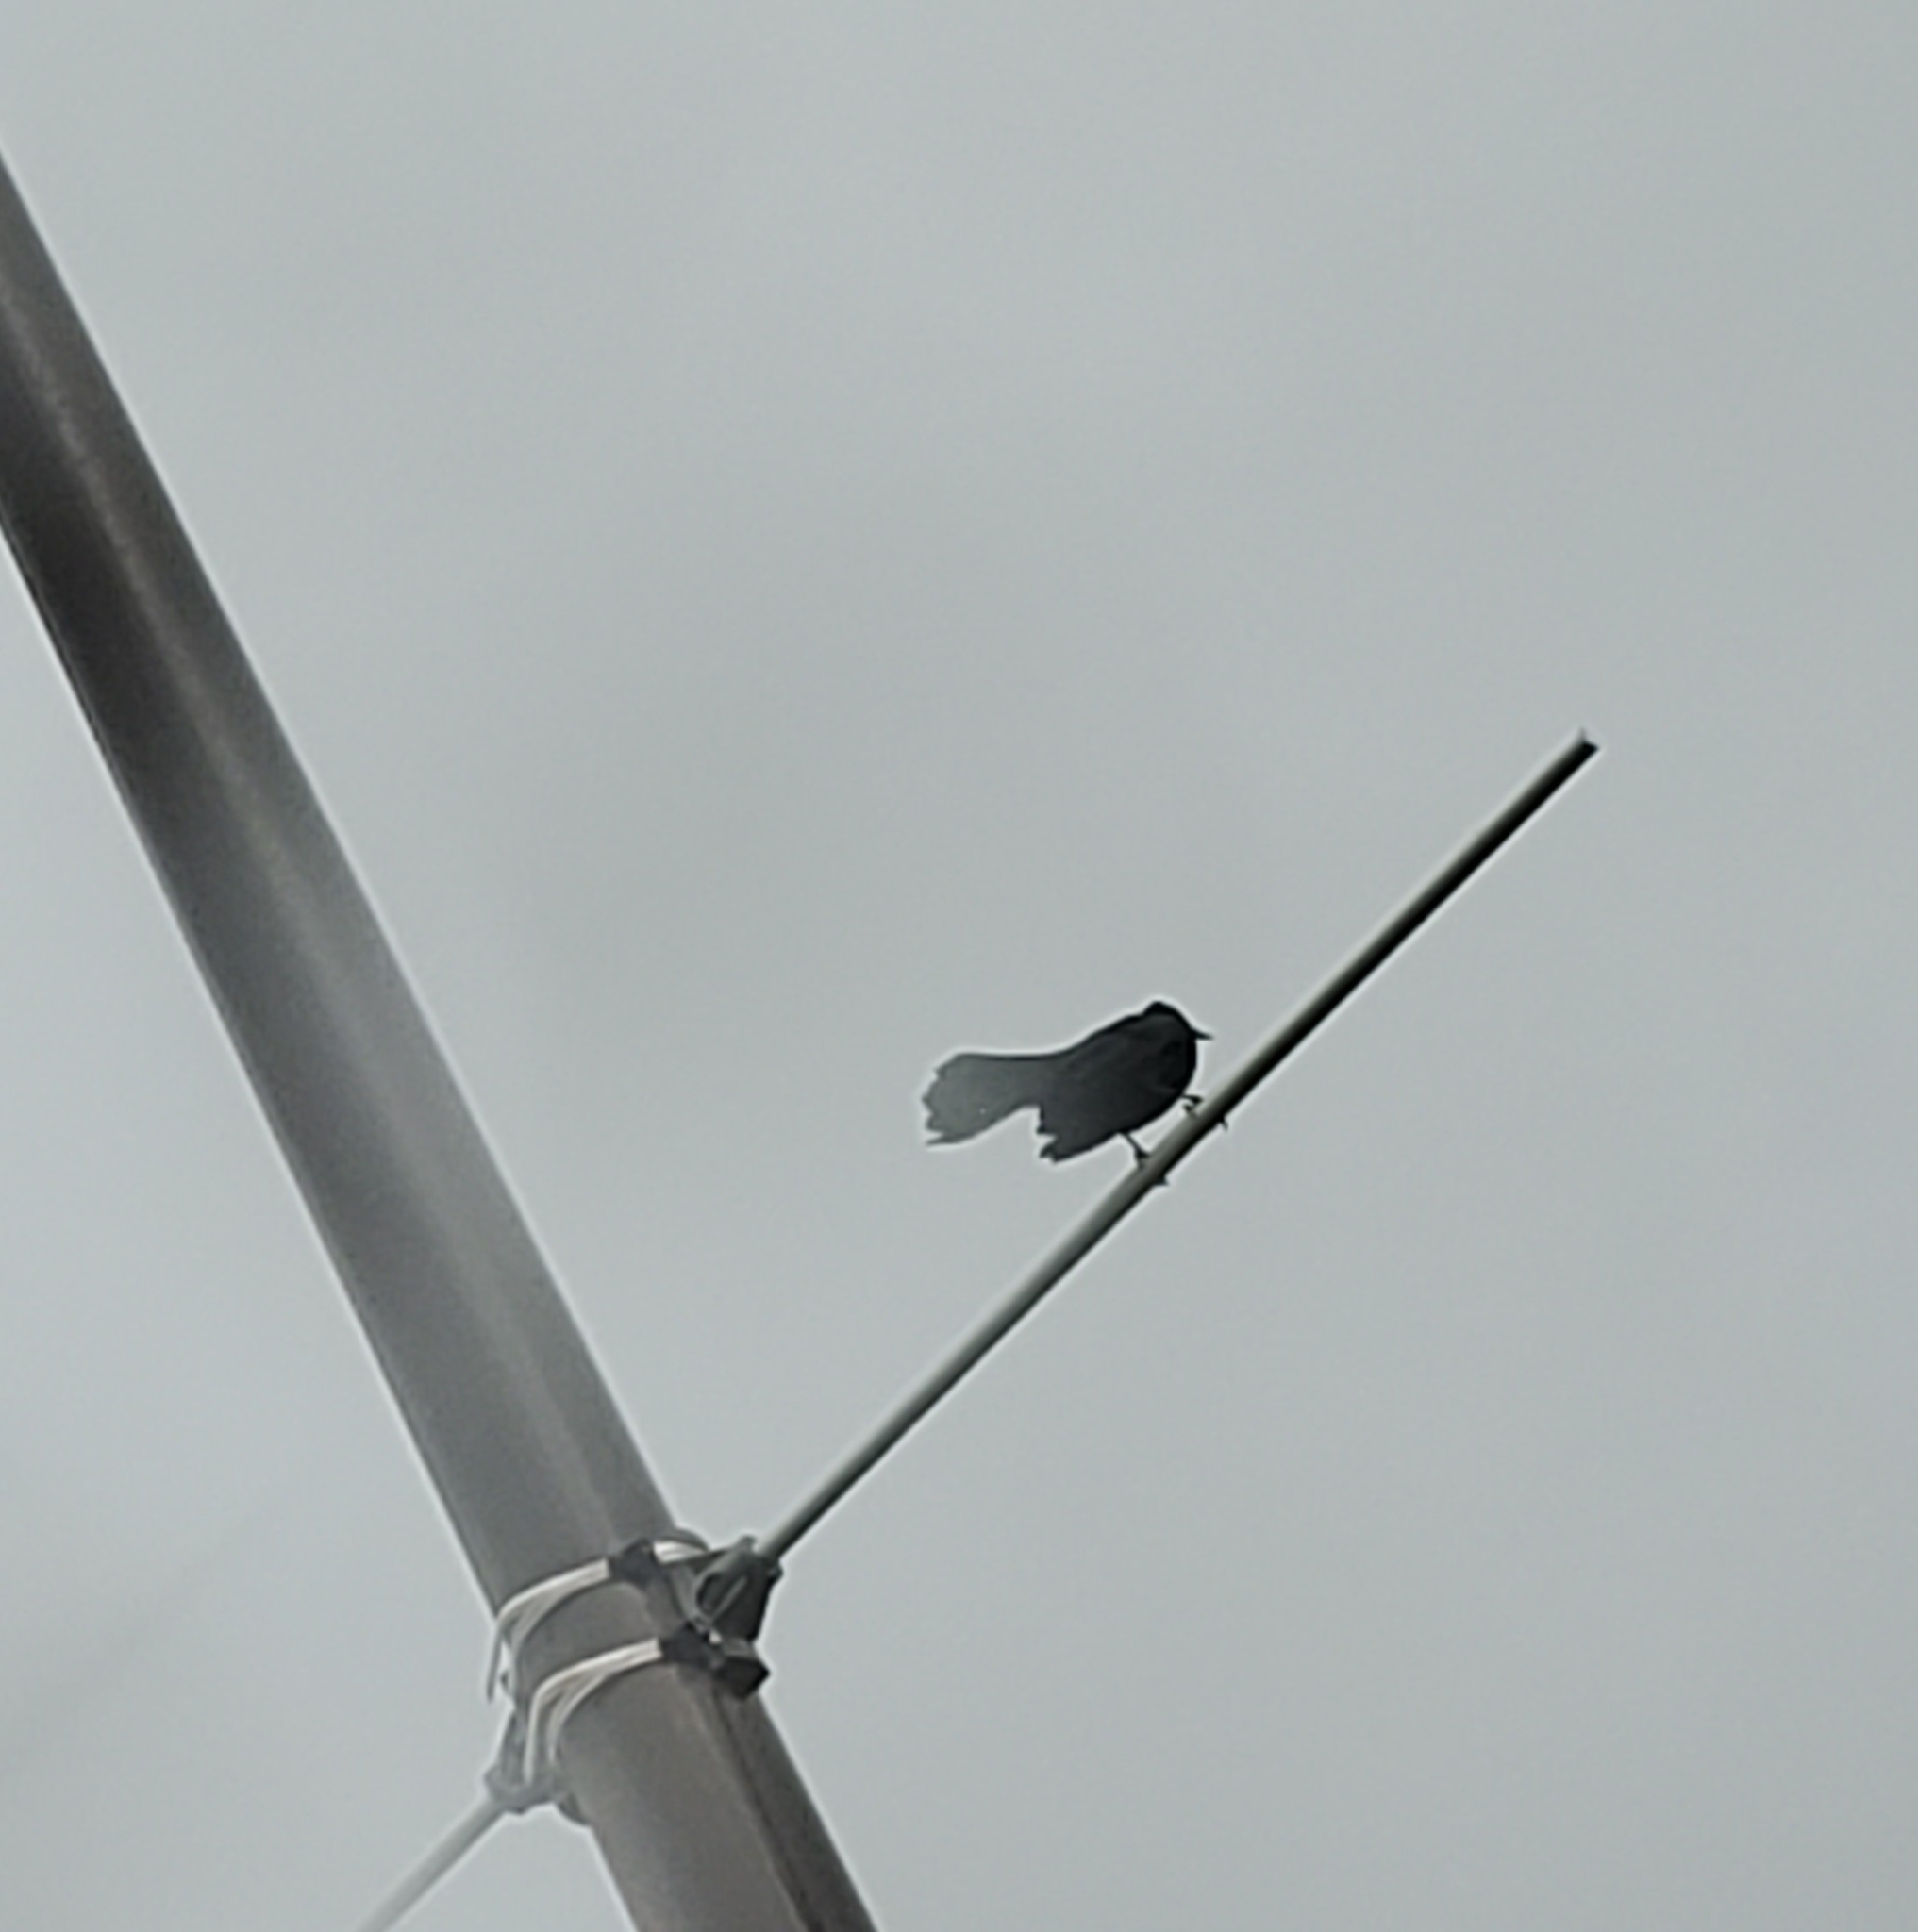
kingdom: Animalia
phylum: Chordata
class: Aves
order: Passeriformes
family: Icteridae
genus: Quiscalus
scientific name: Quiscalus niger
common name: Greater antillean grackle
